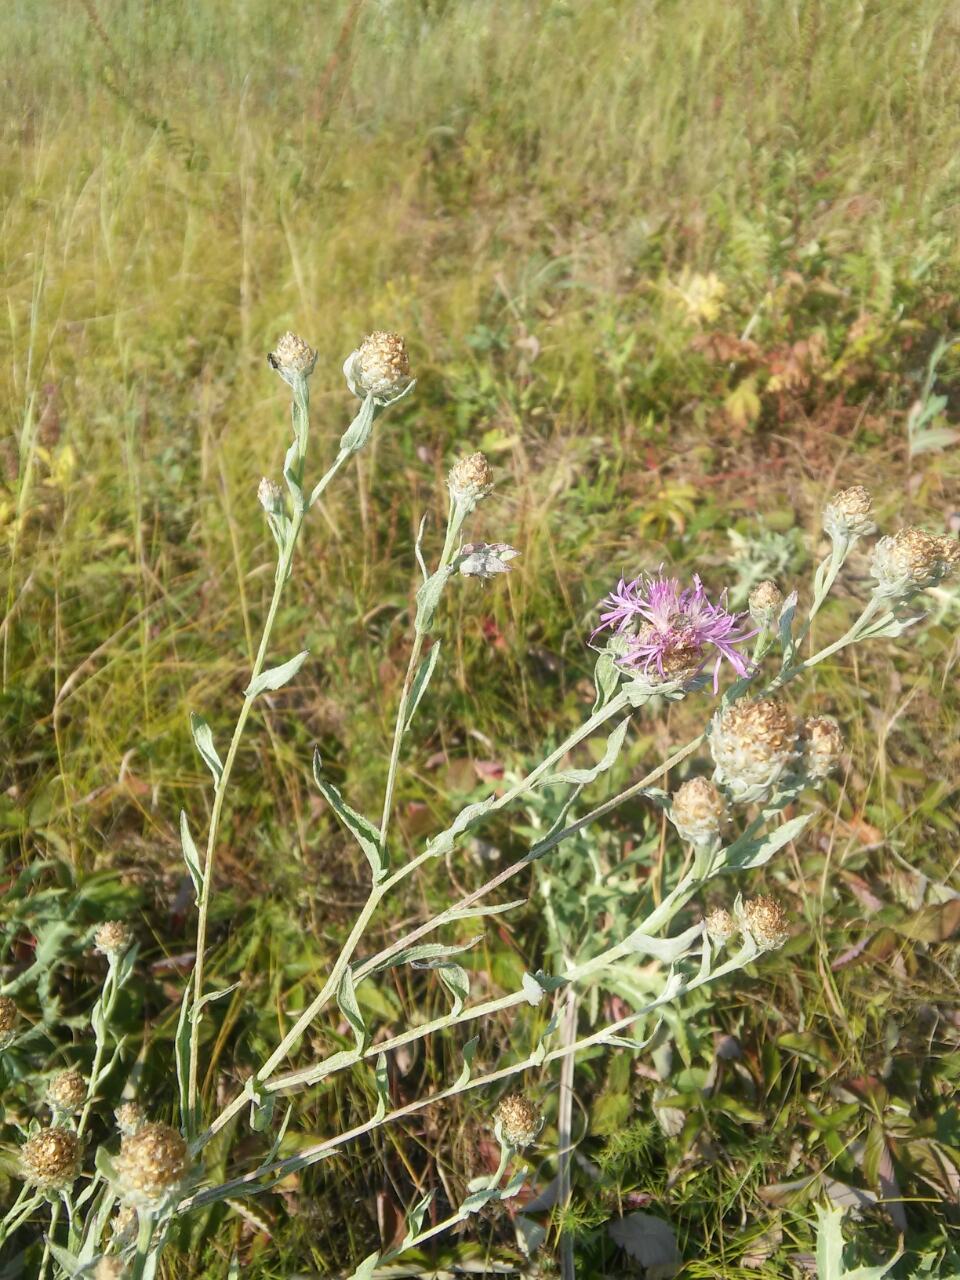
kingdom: Plantae
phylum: Tracheophyta
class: Magnoliopsida
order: Asterales
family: Asteraceae
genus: Centaurea
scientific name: Centaurea jacea
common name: Brown knapweed
